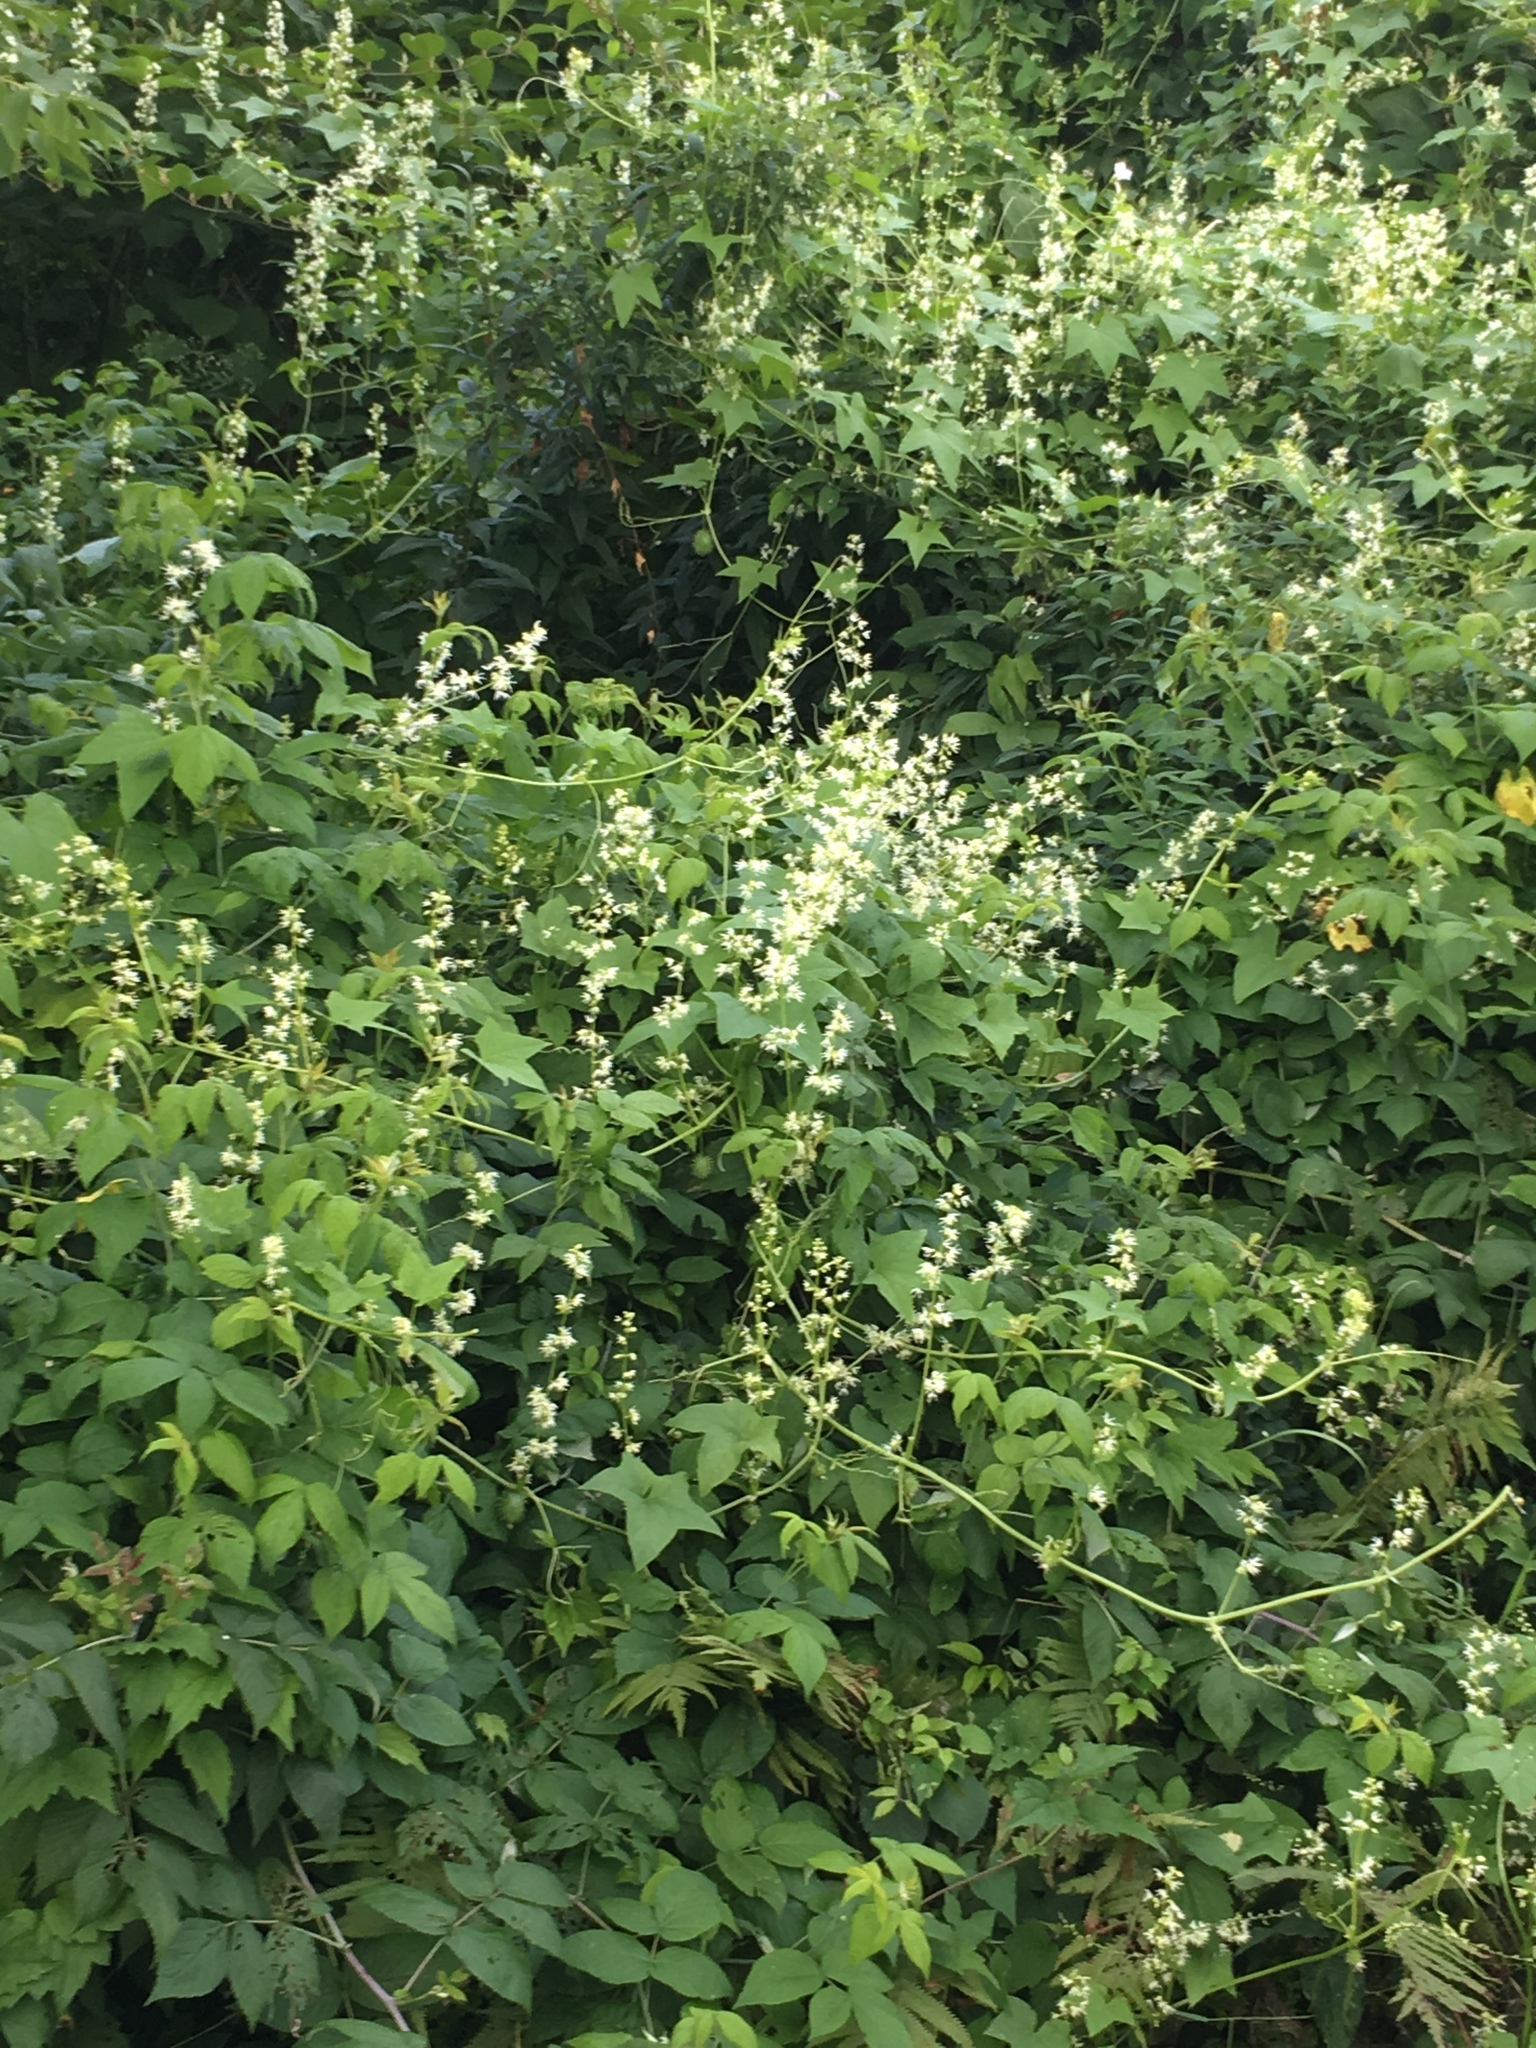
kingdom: Plantae
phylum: Tracheophyta
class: Magnoliopsida
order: Cucurbitales
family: Cucurbitaceae
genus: Echinocystis
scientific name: Echinocystis lobata
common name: Wild cucumber
